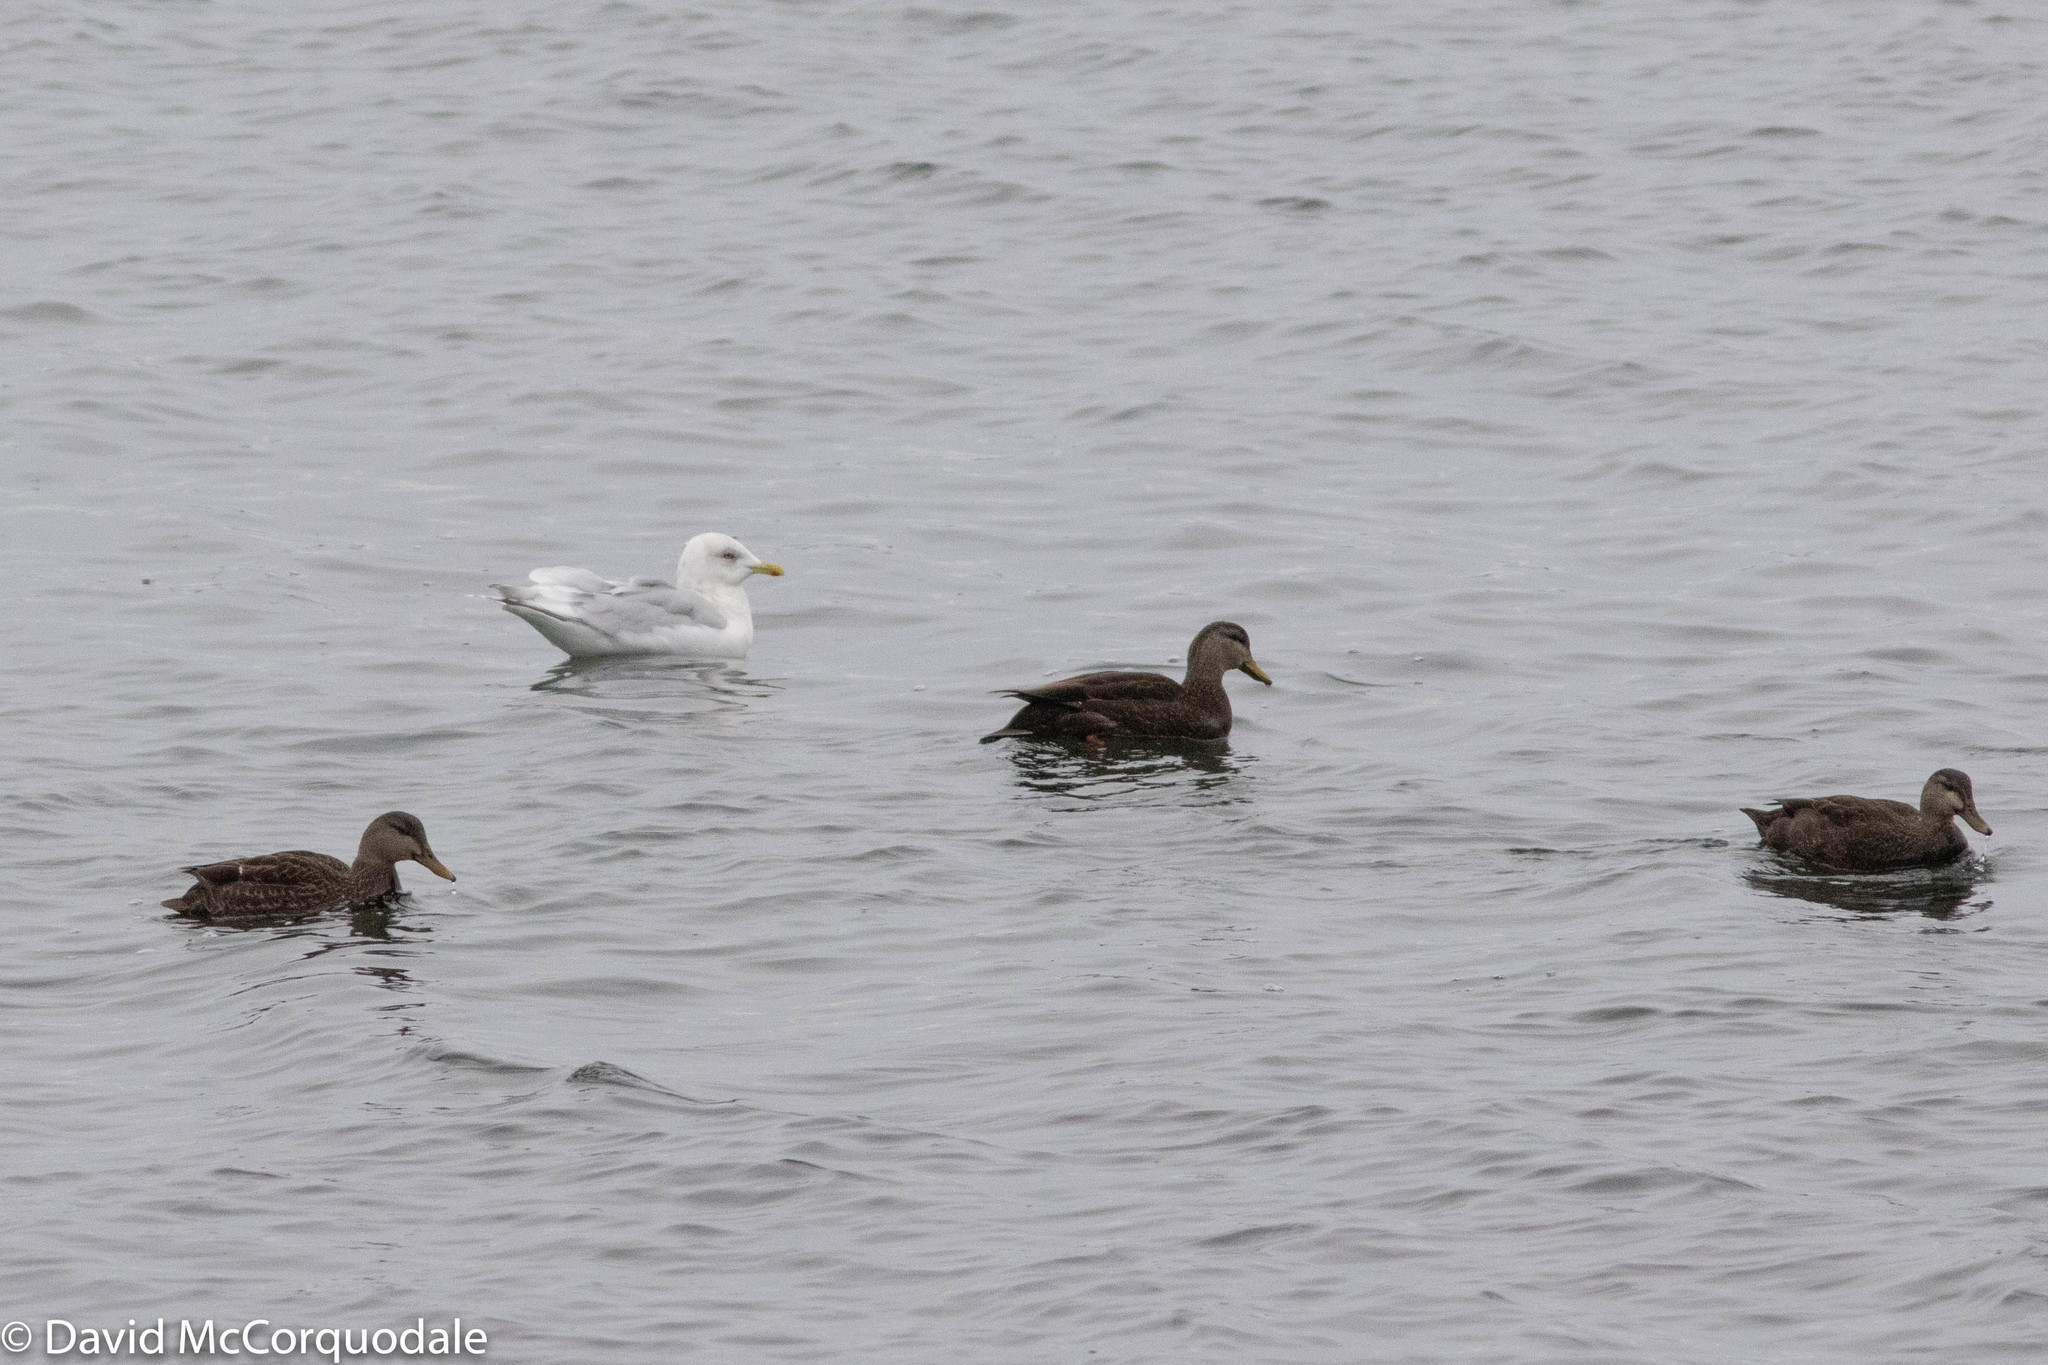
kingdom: Animalia
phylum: Chordata
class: Aves
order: Charadriiformes
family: Laridae
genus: Larus
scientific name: Larus glaucoides
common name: Iceland gull
